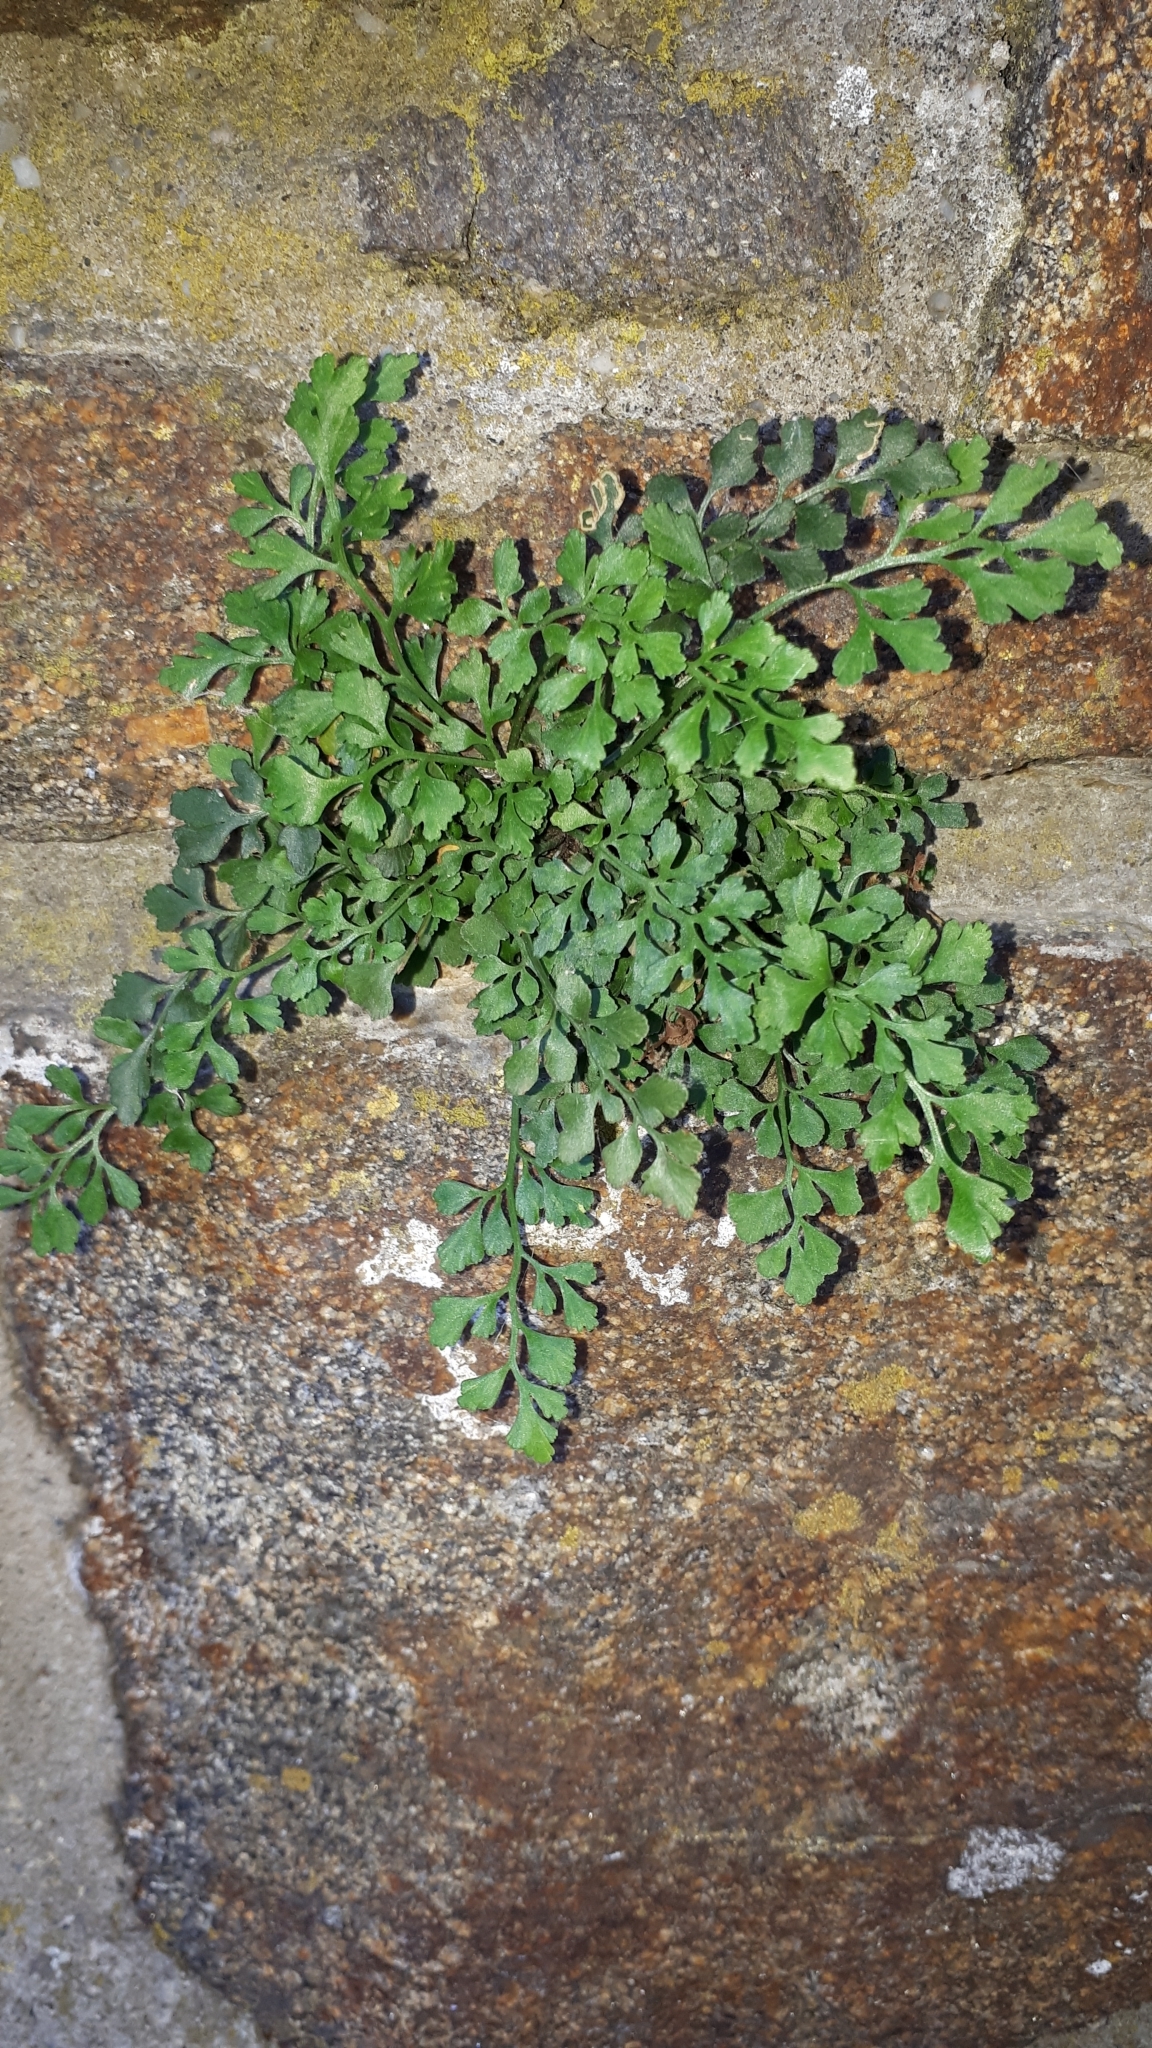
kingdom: Plantae
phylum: Tracheophyta
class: Polypodiopsida
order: Polypodiales
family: Aspleniaceae
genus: Asplenium
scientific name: Asplenium ruta-muraria
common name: Wall-rue
